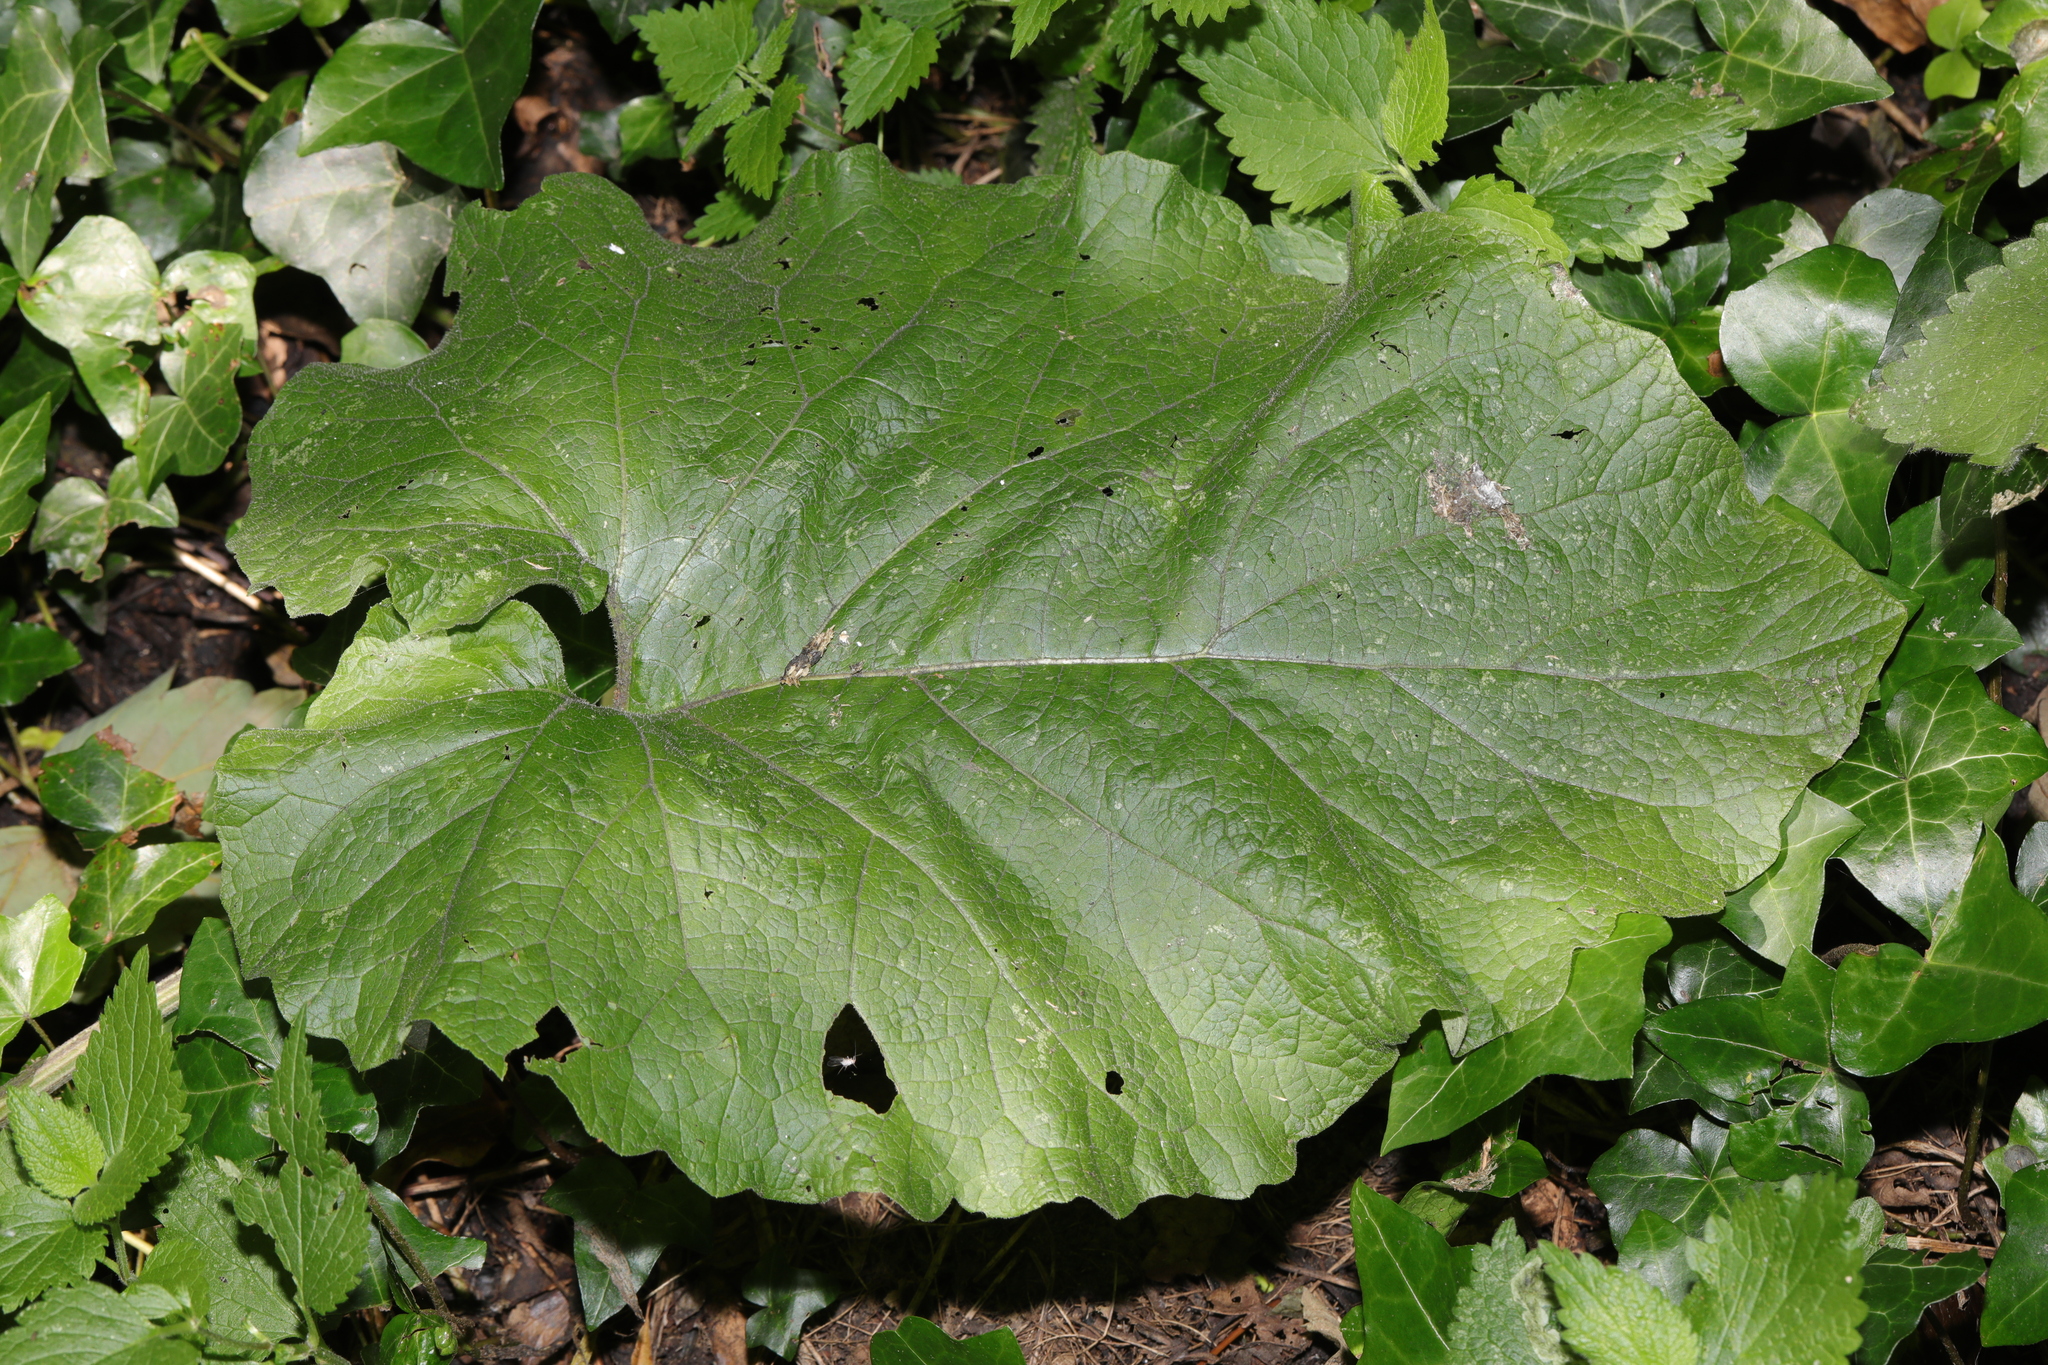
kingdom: Plantae
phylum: Tracheophyta
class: Magnoliopsida
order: Asterales
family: Asteraceae
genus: Arctium
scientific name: Arctium minus
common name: Lesser burdock
